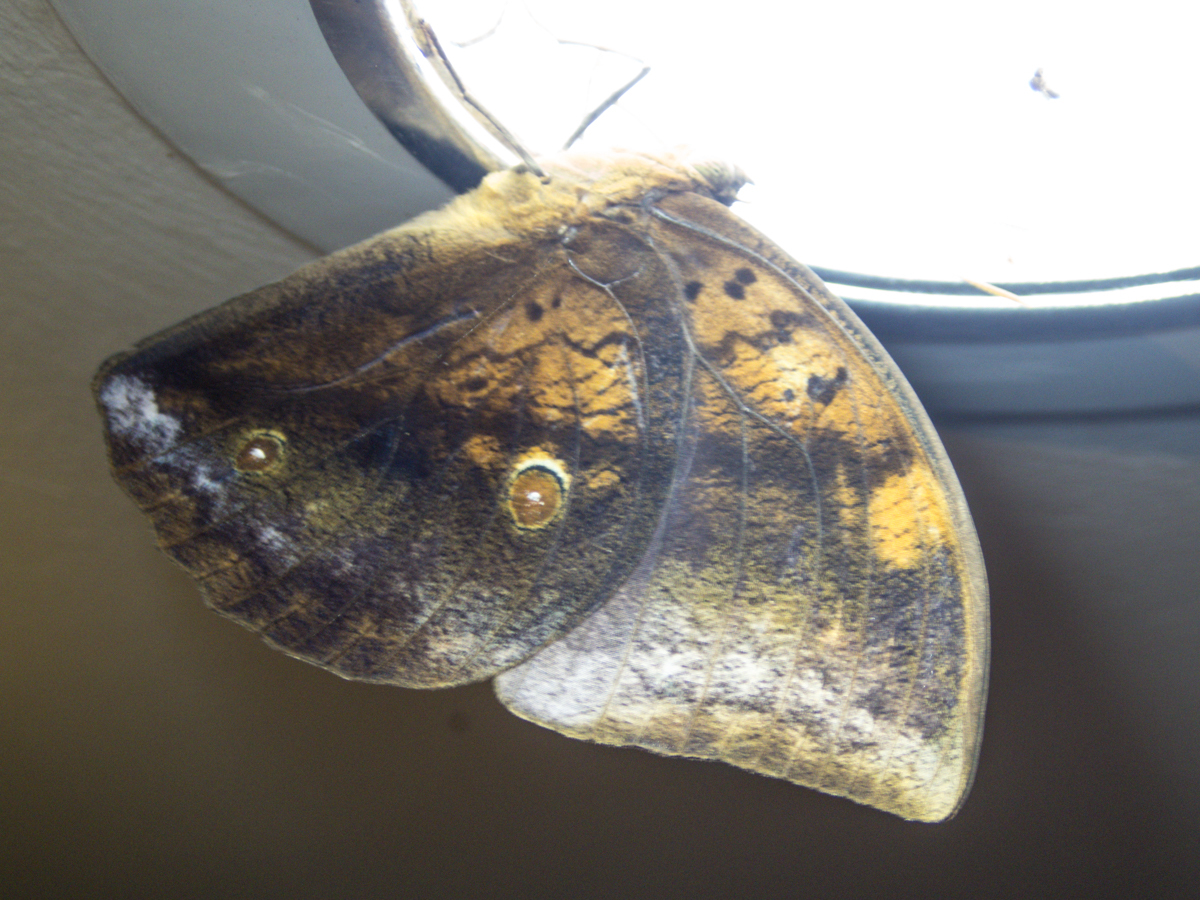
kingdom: Animalia
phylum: Arthropoda
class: Insecta
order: Lepidoptera
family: Nymphalidae
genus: Discophora
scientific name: Discophora timora
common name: Great duffer
